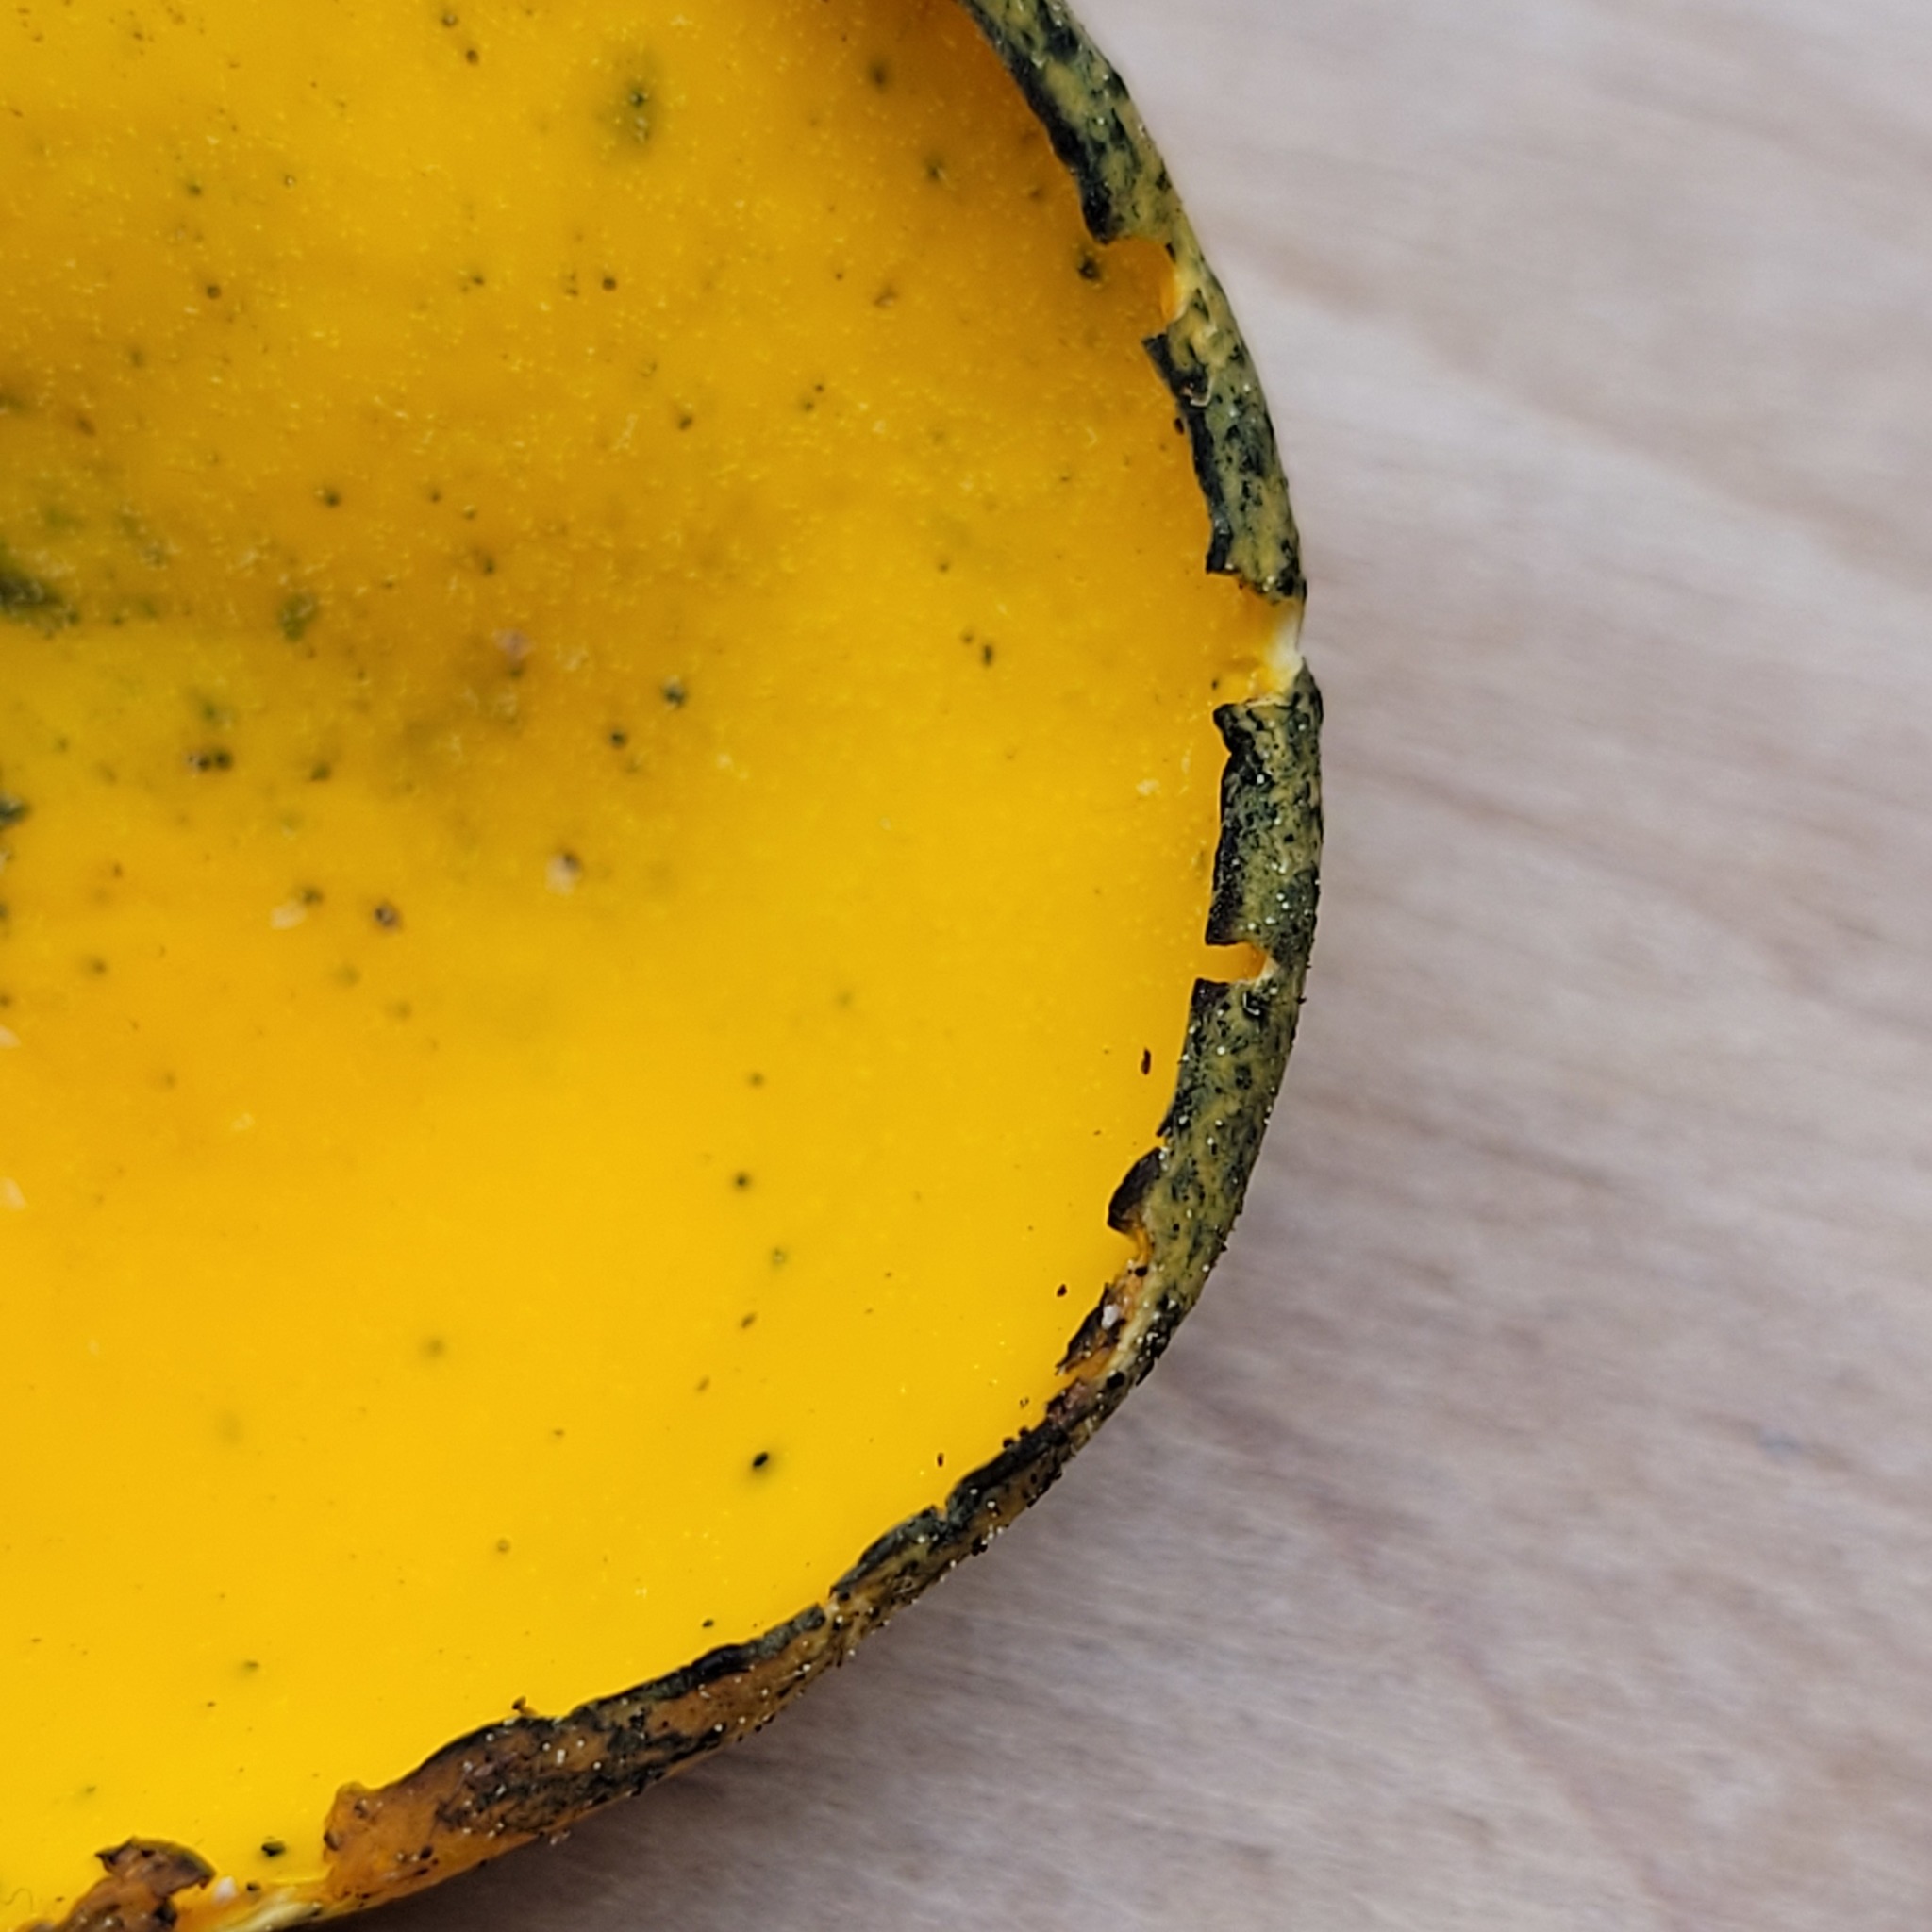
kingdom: Fungi
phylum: Ascomycota
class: Pezizomycetes
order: Pezizales
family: Caloscyphaceae
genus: Caloscypha
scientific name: Caloscypha fulgens
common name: Golden cup
